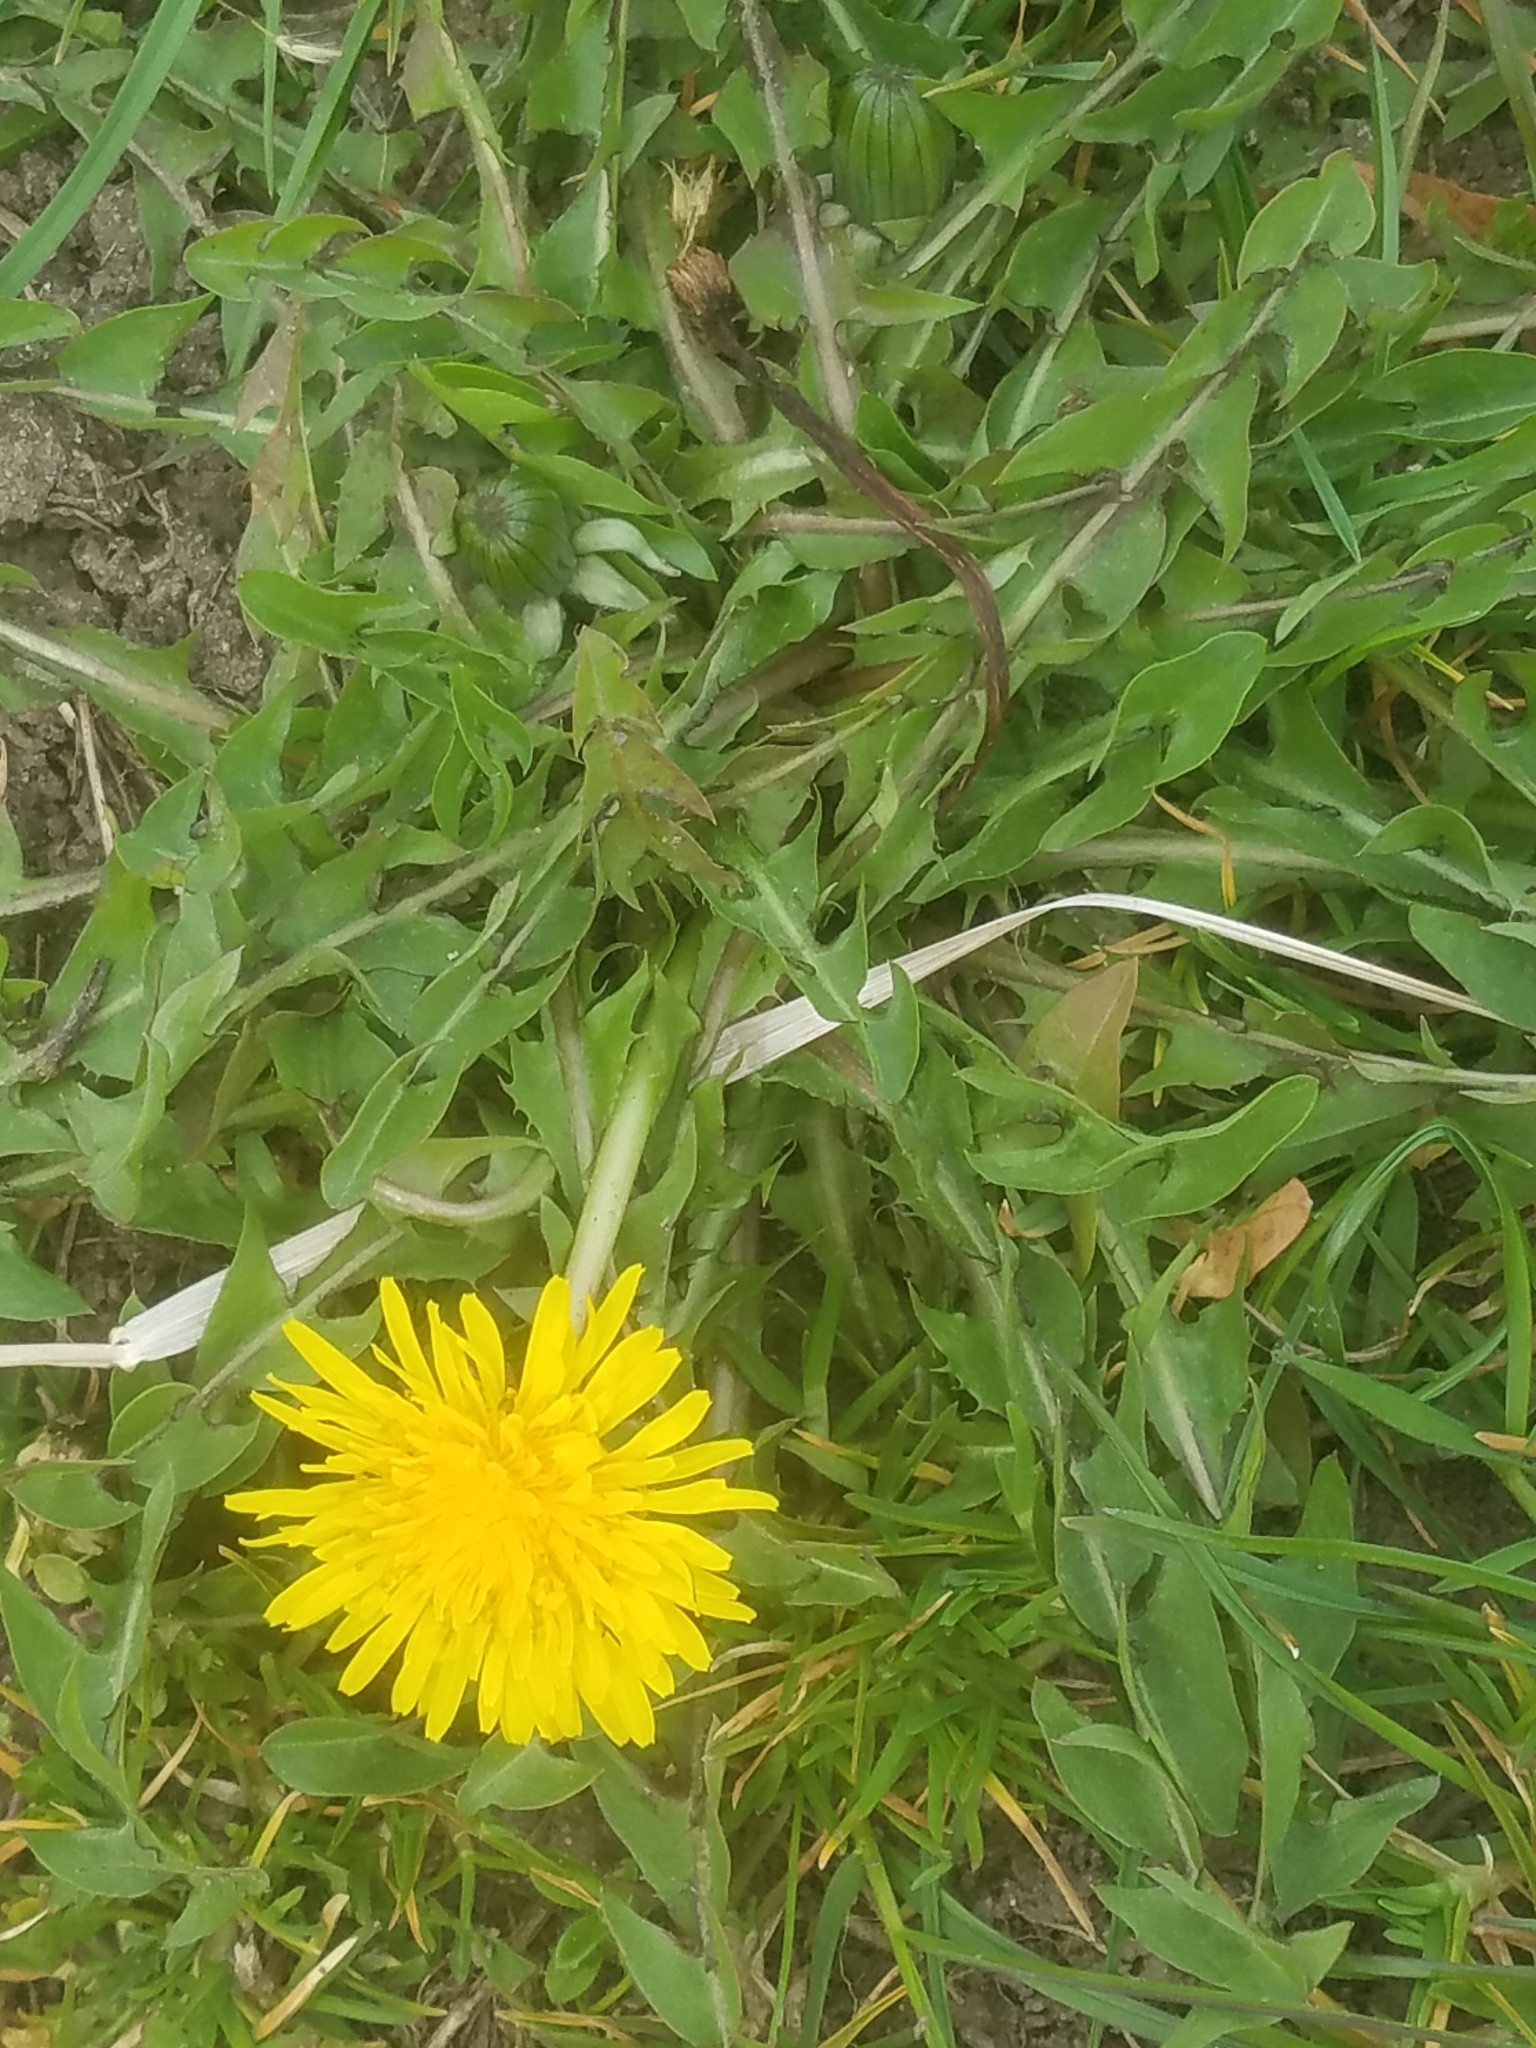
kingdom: Plantae
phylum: Tracheophyta
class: Magnoliopsida
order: Asterales
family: Asteraceae
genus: Taraxacum
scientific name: Taraxacum officinale
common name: Common dandelion
